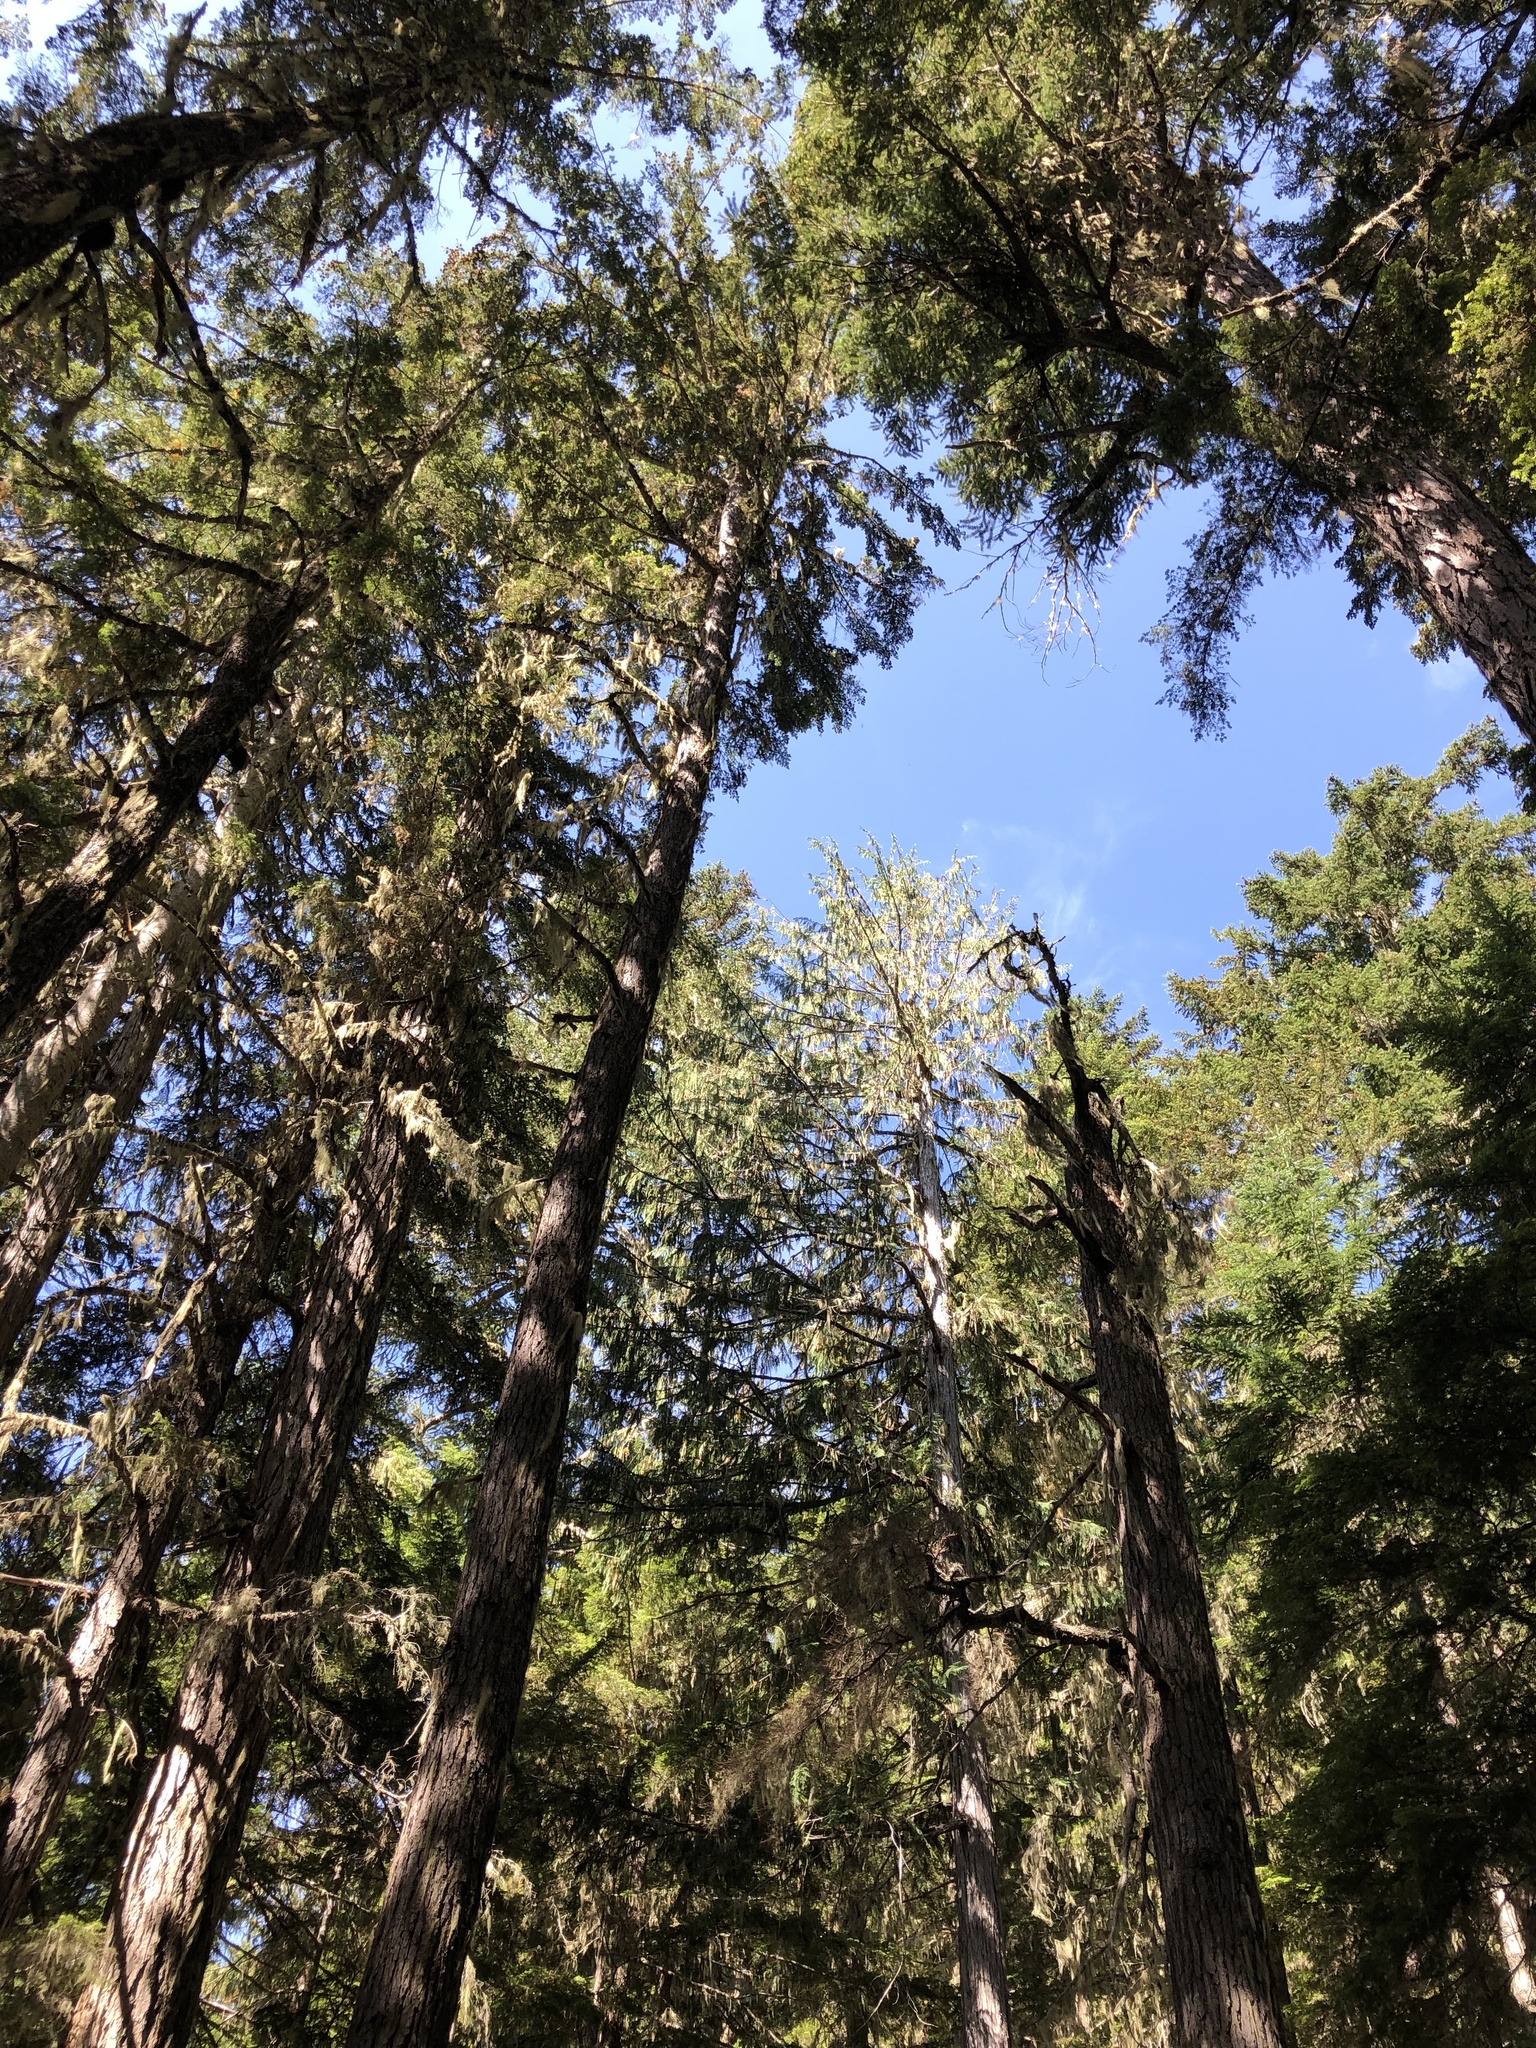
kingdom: Plantae
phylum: Tracheophyta
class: Pinopsida
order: Pinales
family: Cupressaceae
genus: Xanthocyparis
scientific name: Xanthocyparis nootkatensis
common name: Nootka cypress
